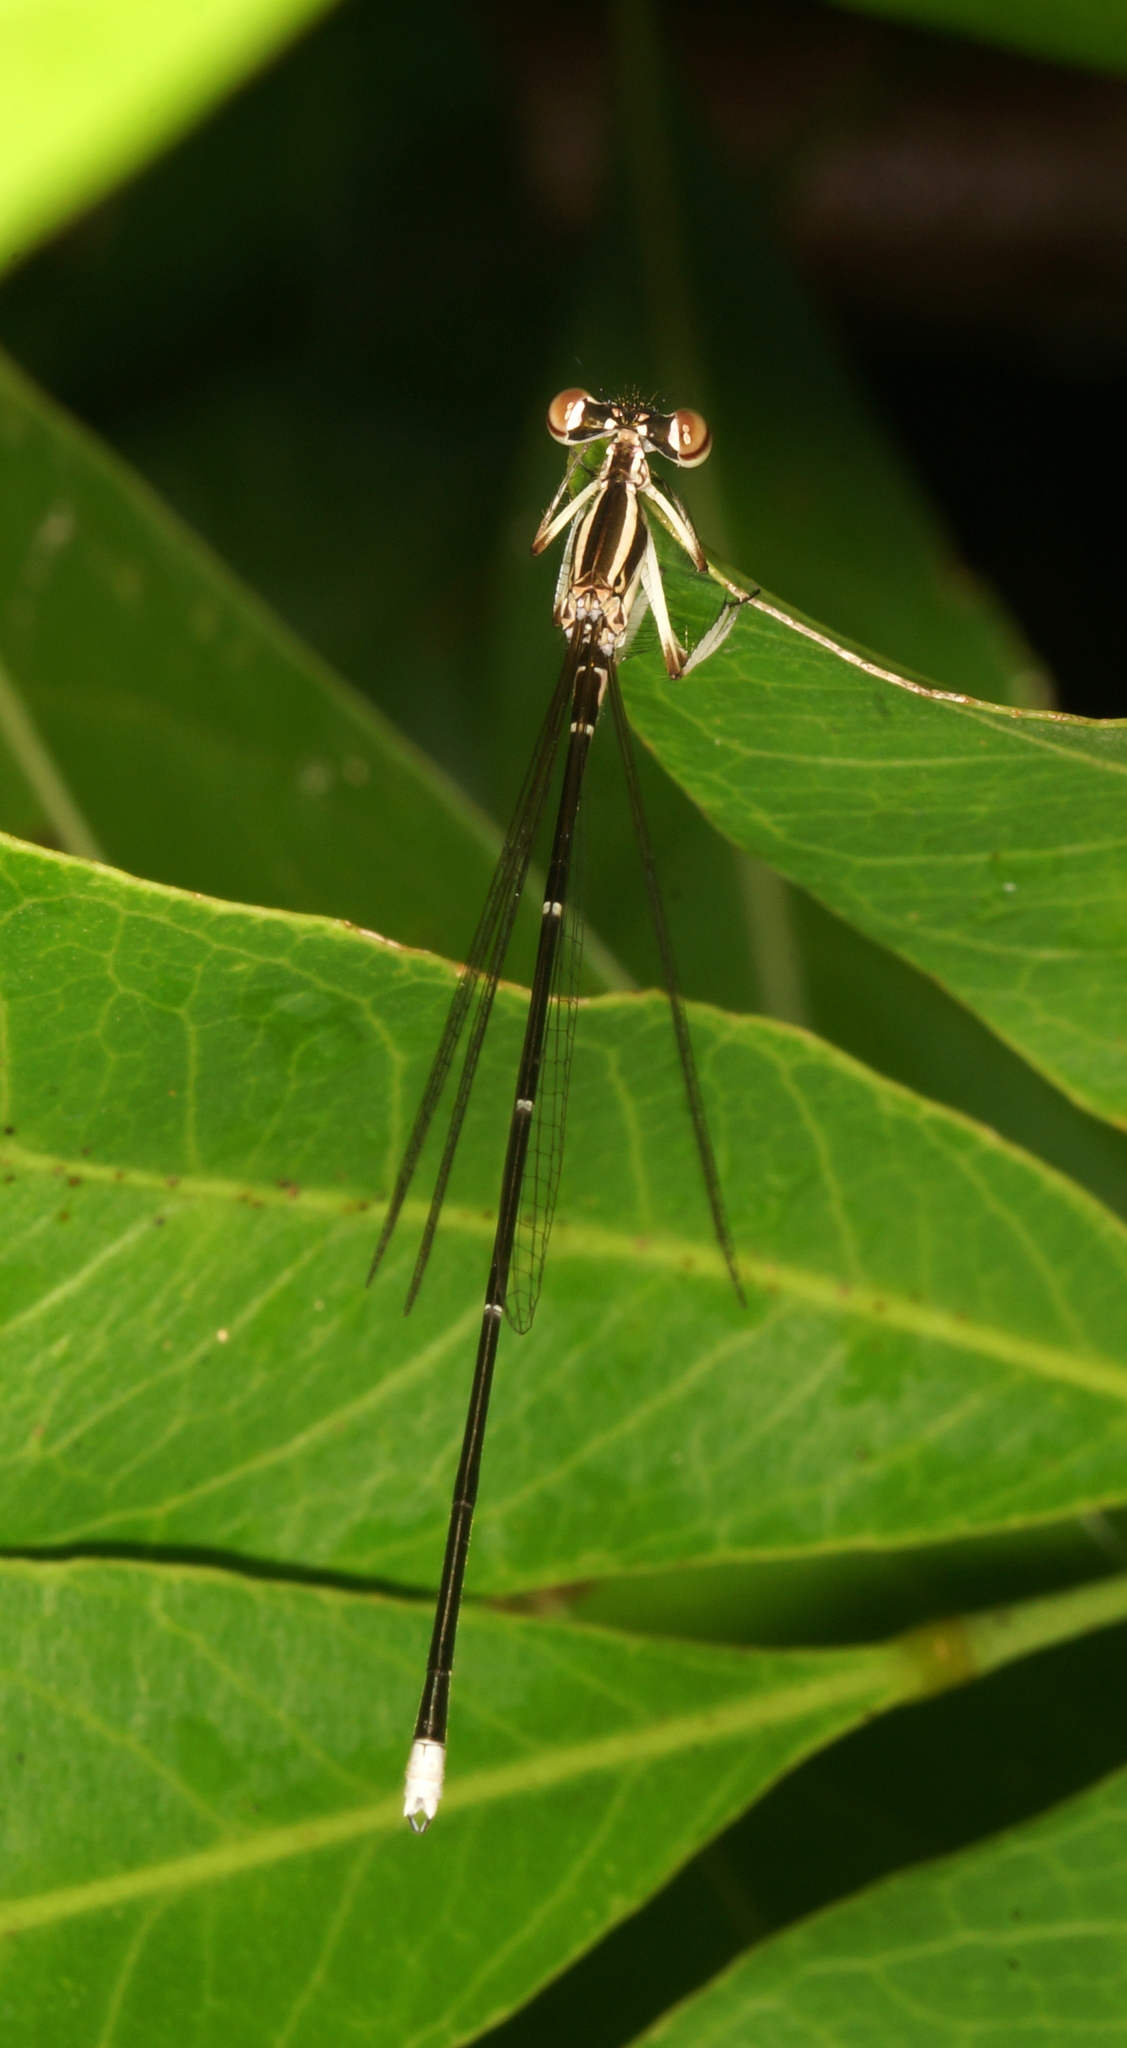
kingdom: Animalia
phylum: Arthropoda
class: Insecta
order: Odonata
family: Platycnemididae
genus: Pseudocopera
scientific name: Pseudocopera ciliata
